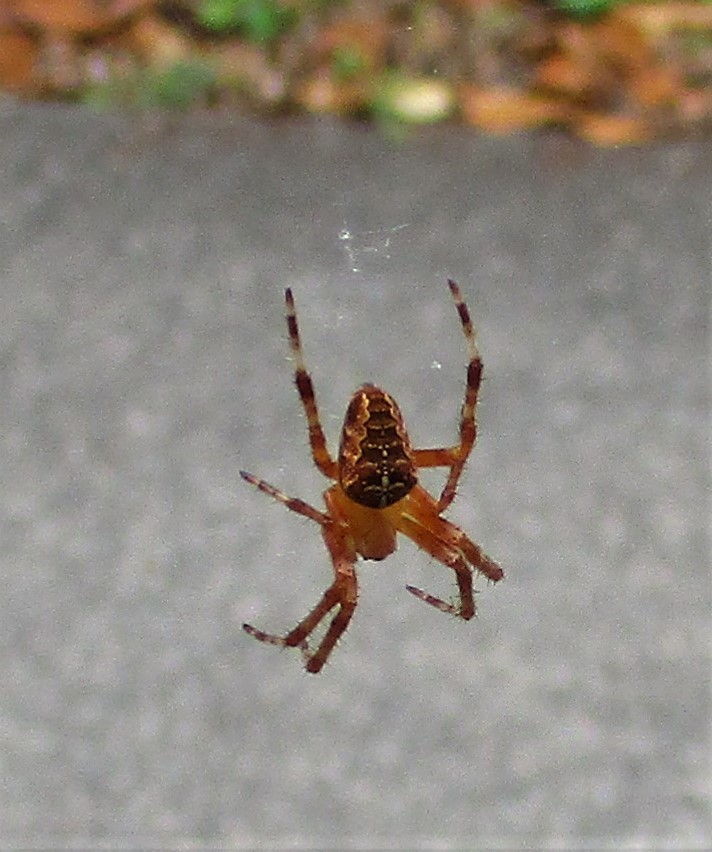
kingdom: Animalia
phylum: Arthropoda
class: Arachnida
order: Araneae
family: Araneidae
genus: Araneus
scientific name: Araneus diadematus
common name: Cross orbweaver
